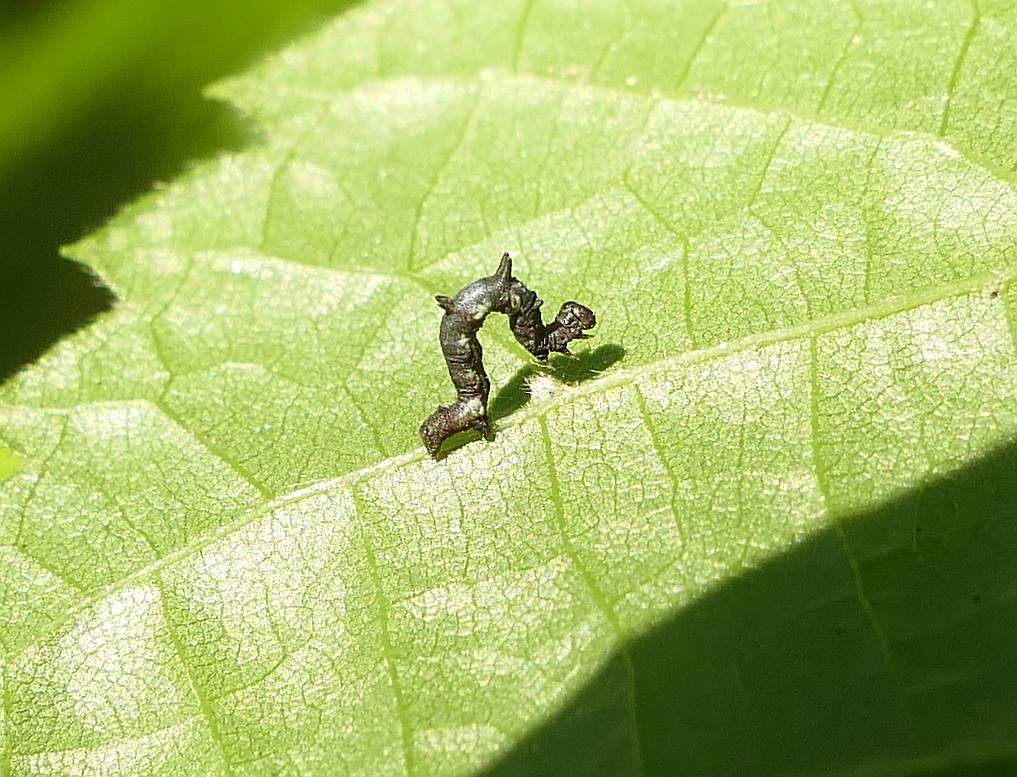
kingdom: Animalia
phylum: Arthropoda
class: Insecta
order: Lepidoptera
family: Geometridae
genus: Nematocampa
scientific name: Nematocampa resistaria
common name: Horned spanworm moth
